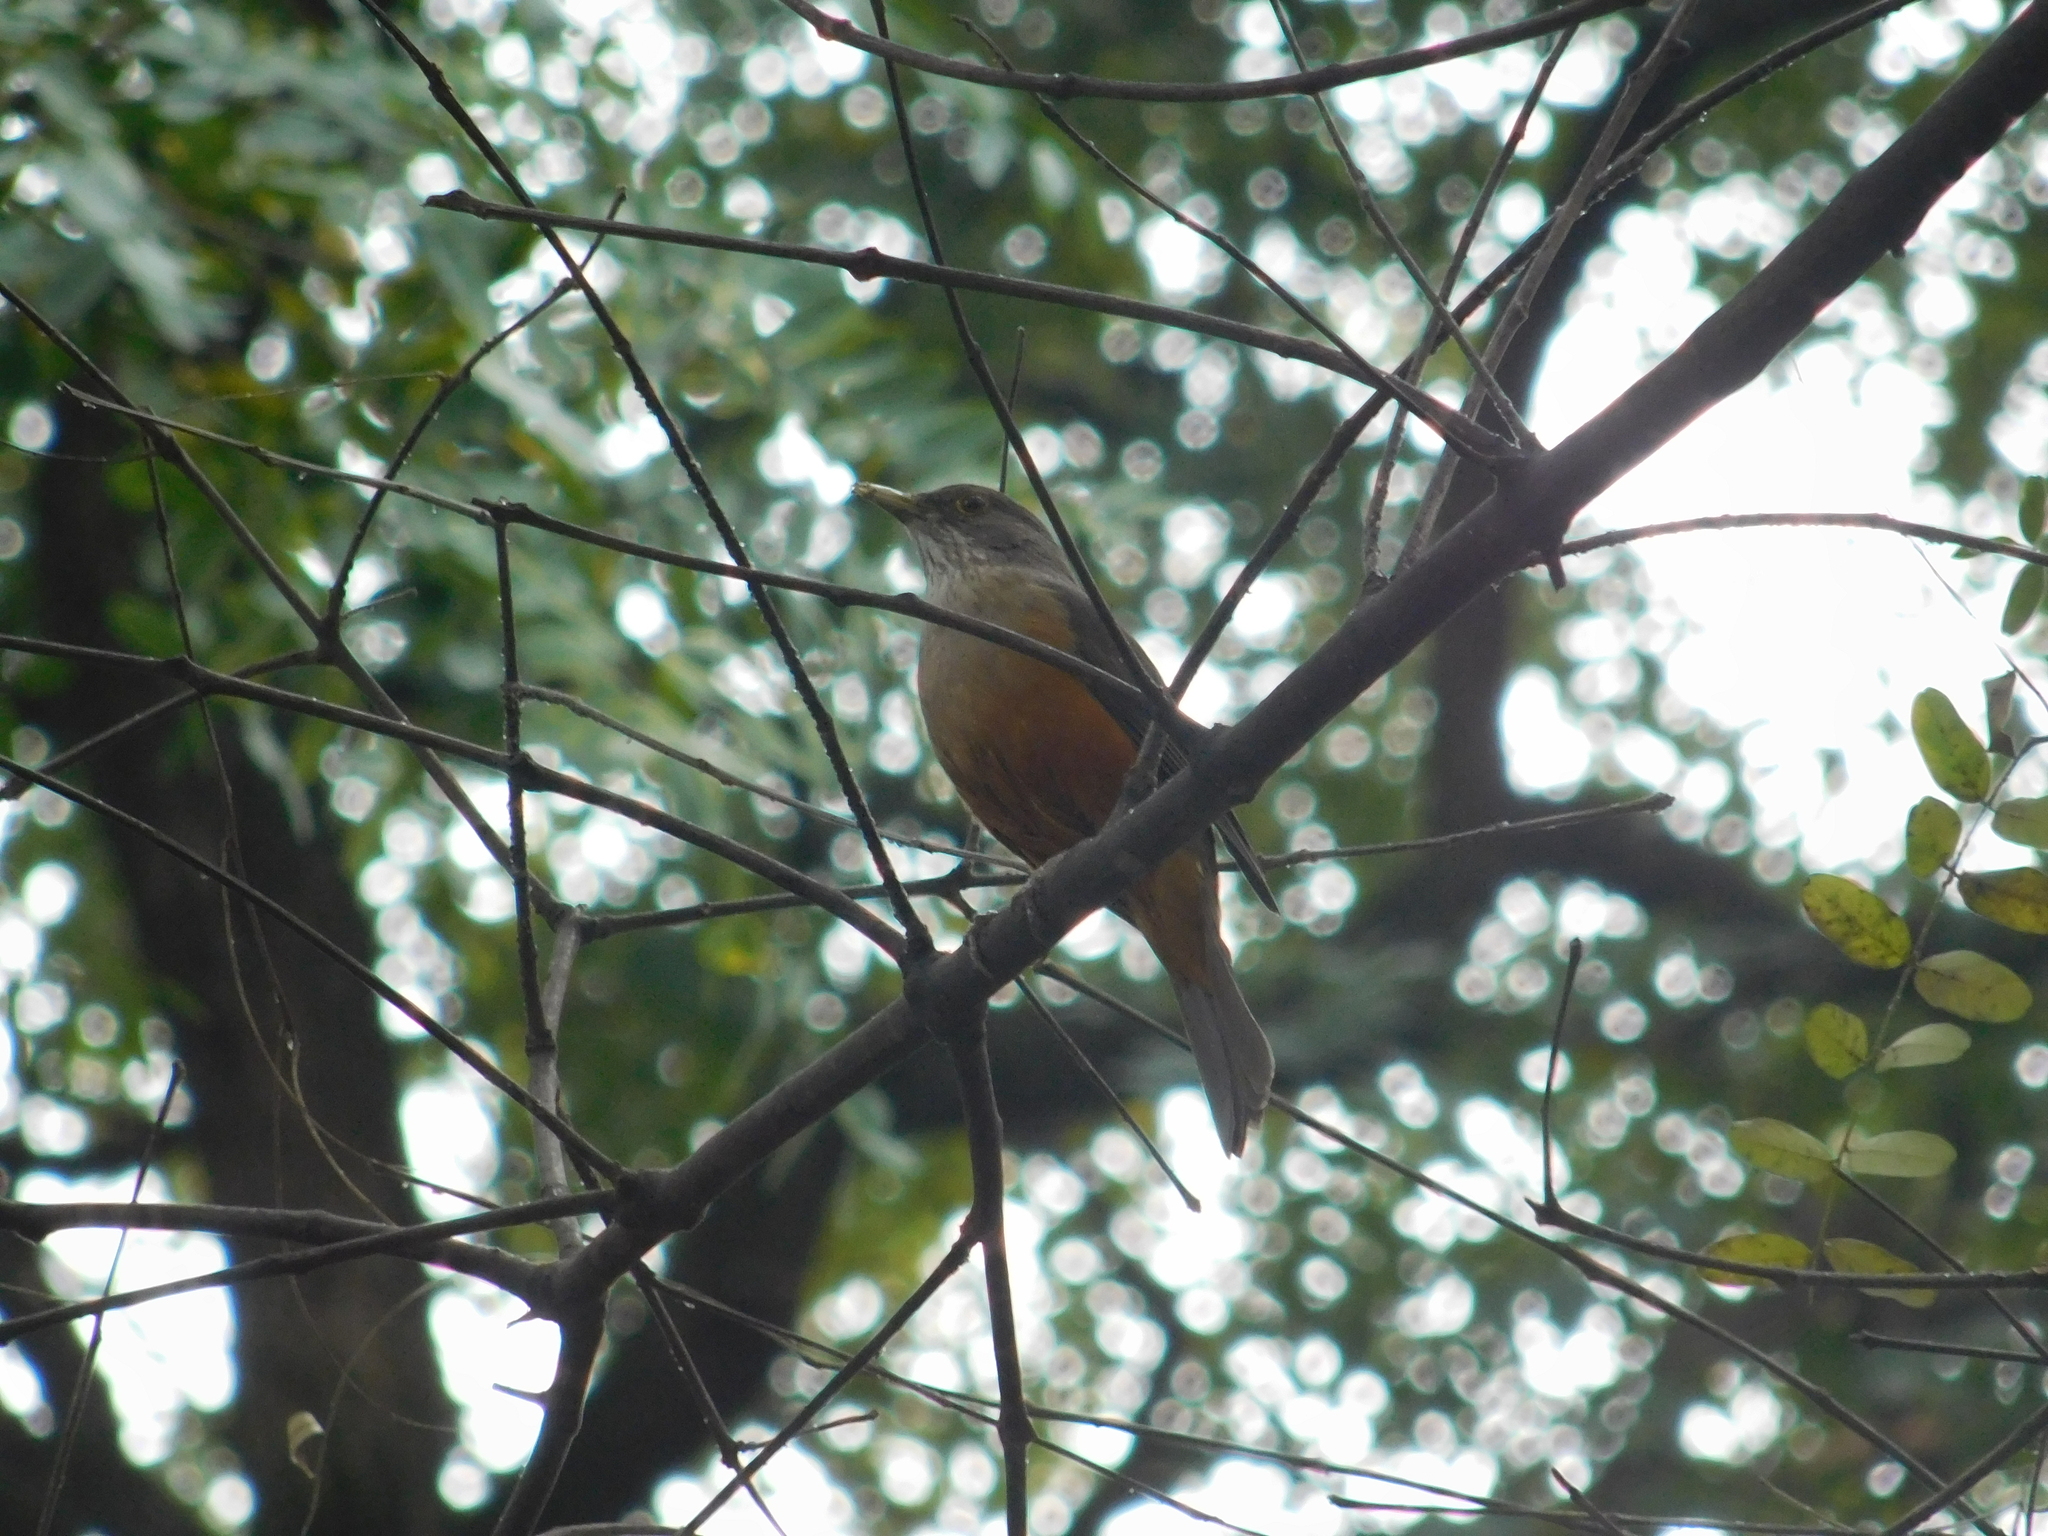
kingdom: Animalia
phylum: Chordata
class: Aves
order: Passeriformes
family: Turdidae
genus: Turdus
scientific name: Turdus rufiventris
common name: Rufous-bellied thrush
